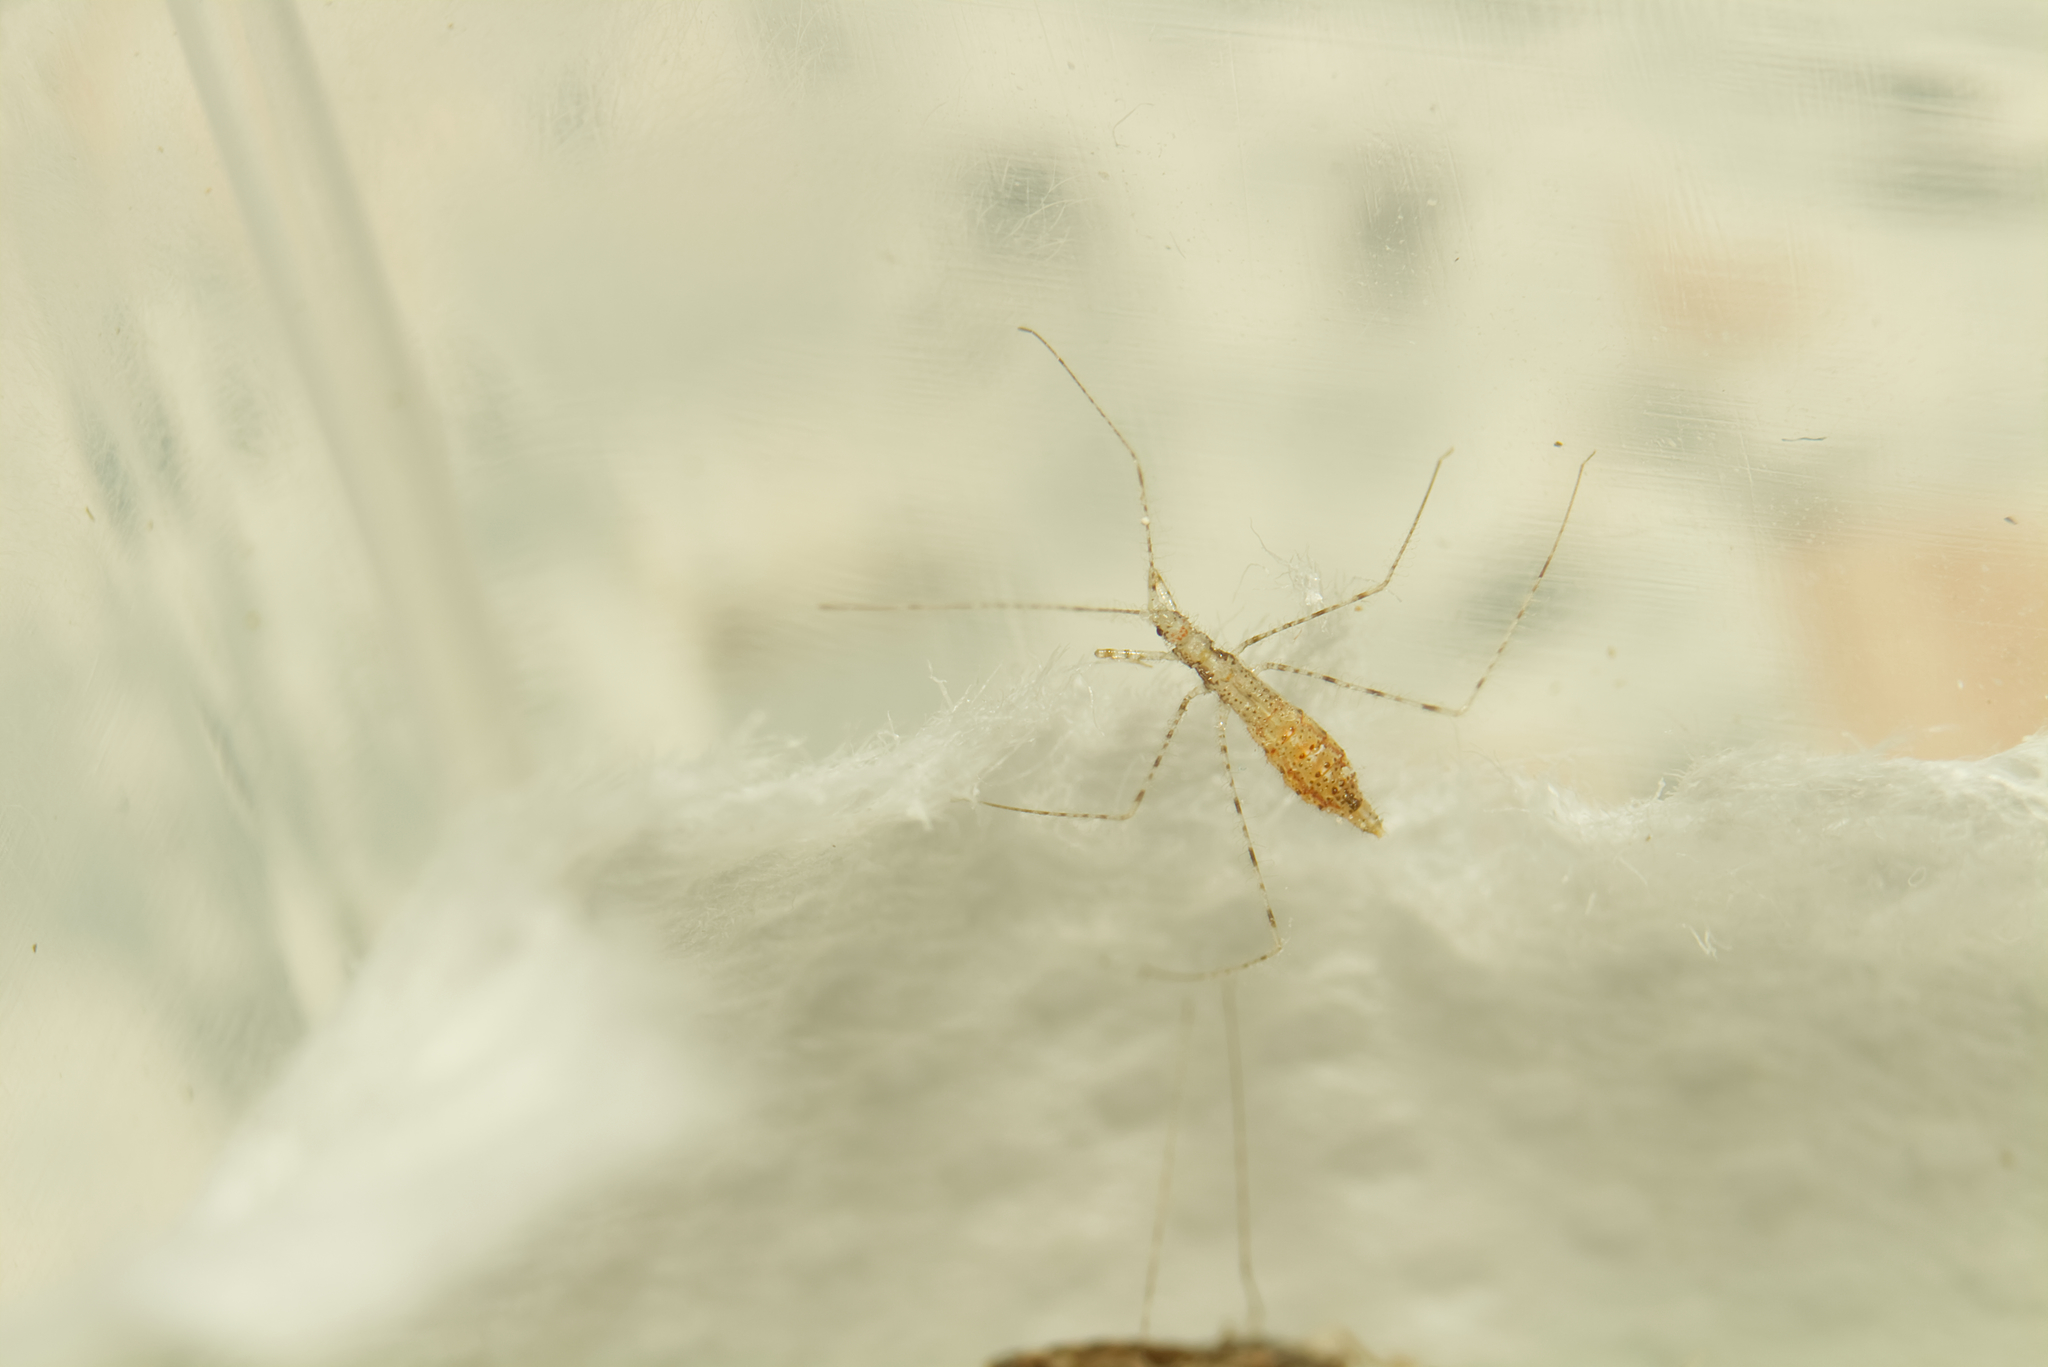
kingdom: Animalia
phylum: Arthropoda
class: Insecta
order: Hemiptera
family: Reduviidae
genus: Empicoris
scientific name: Empicoris culiciformis
